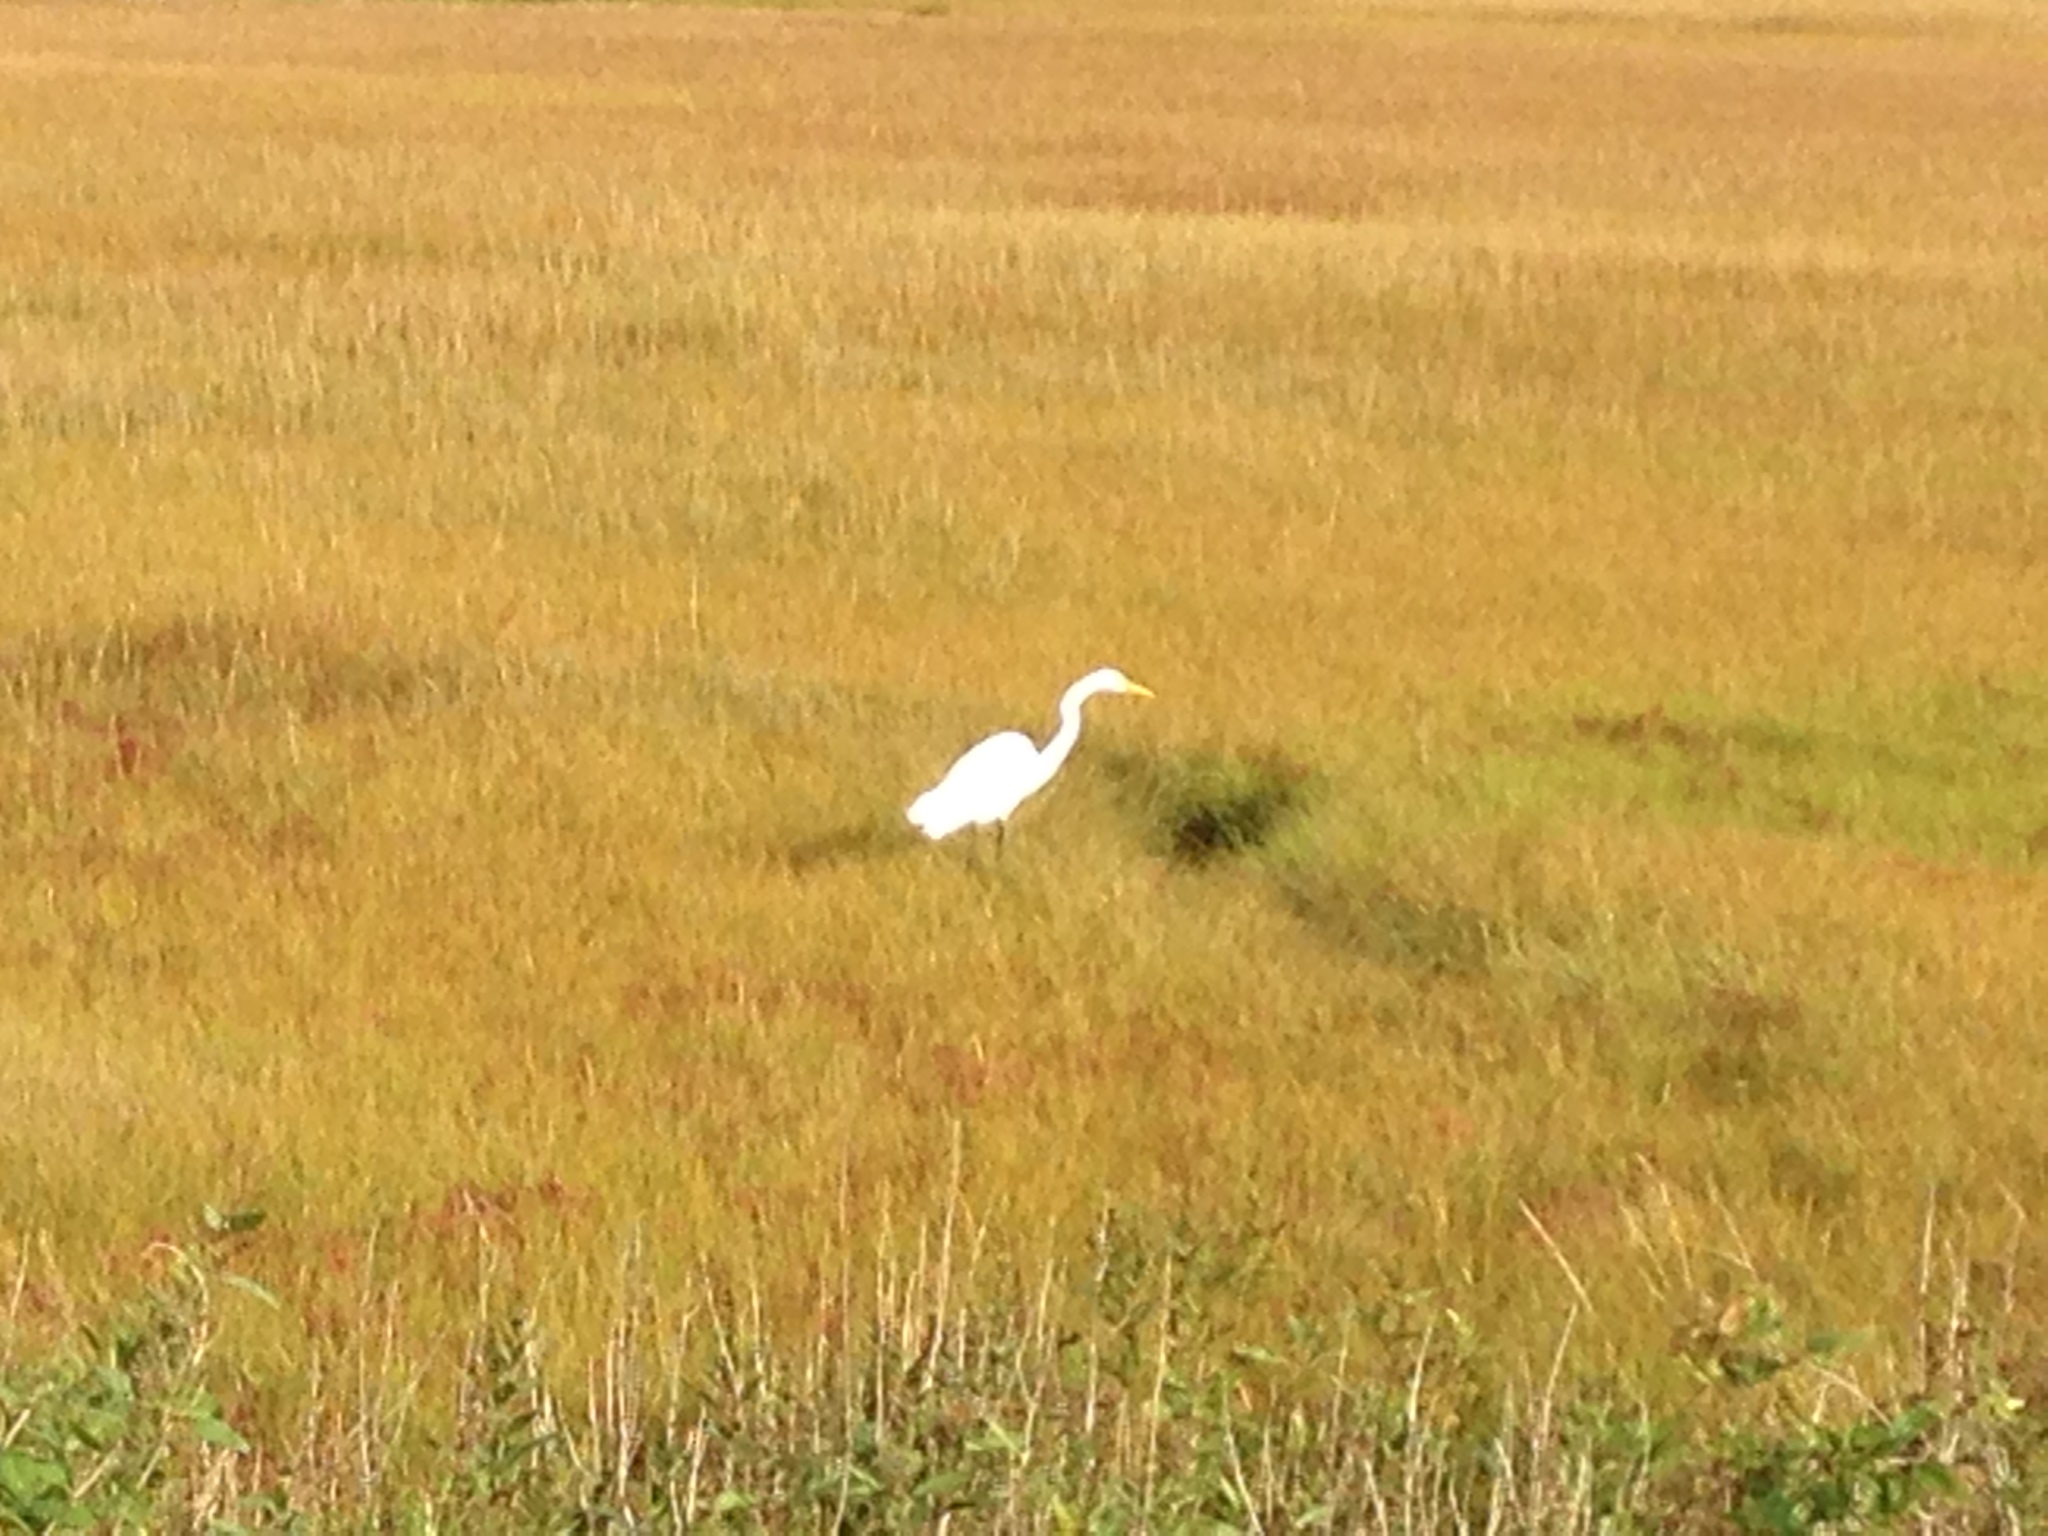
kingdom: Animalia
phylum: Chordata
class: Aves
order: Pelecaniformes
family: Ardeidae
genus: Ardea
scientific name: Ardea alba
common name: Great egret
